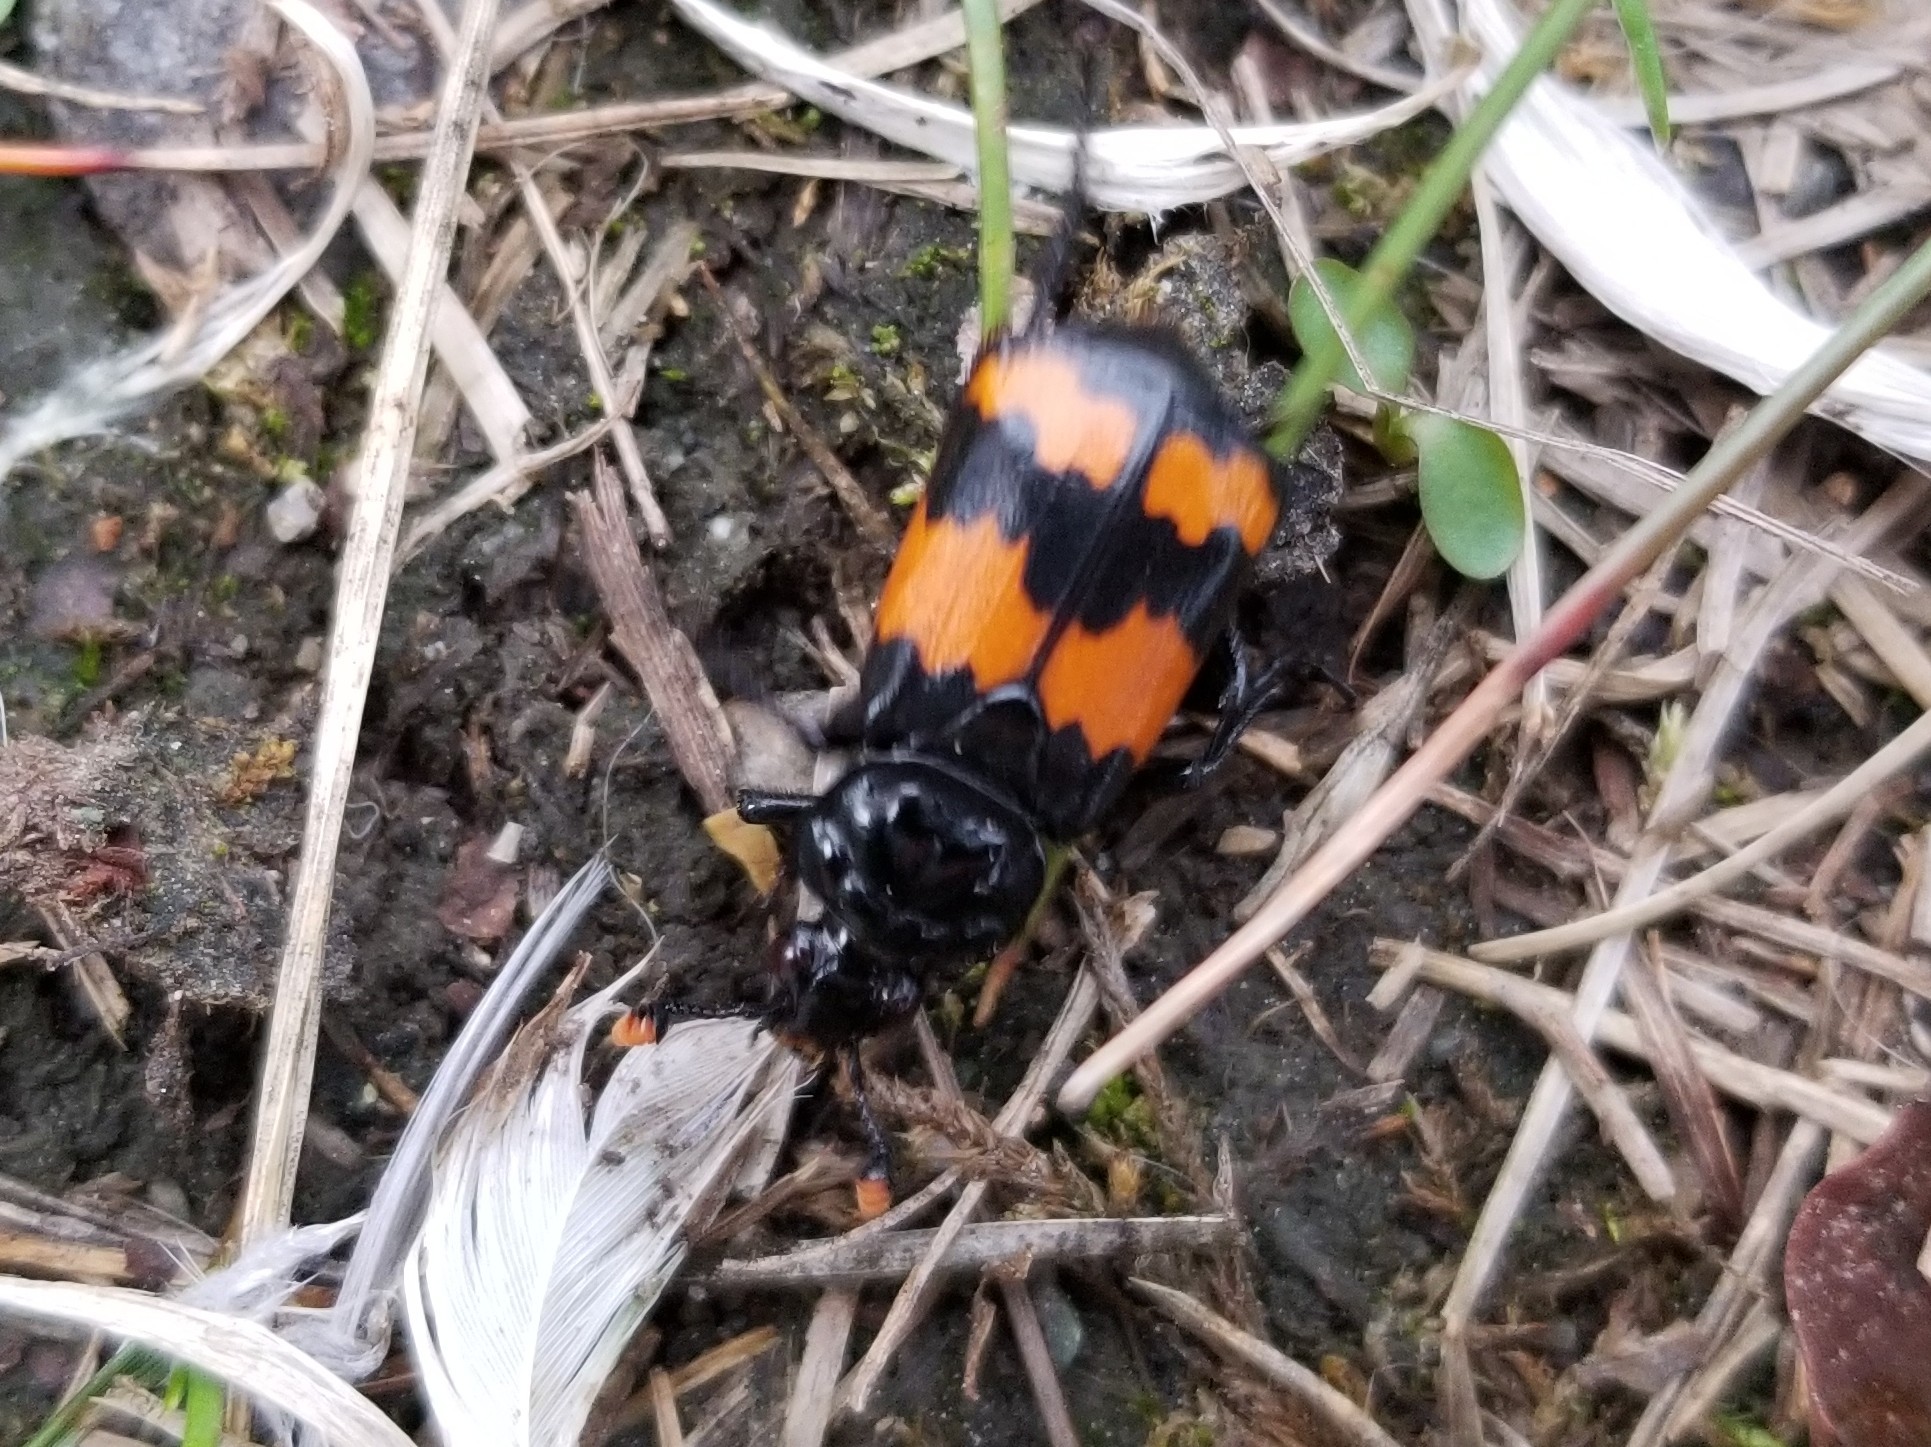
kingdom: Animalia
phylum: Arthropoda
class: Insecta
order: Coleoptera
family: Staphylinidae
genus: Nicrophorus
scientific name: Nicrophorus investigator
